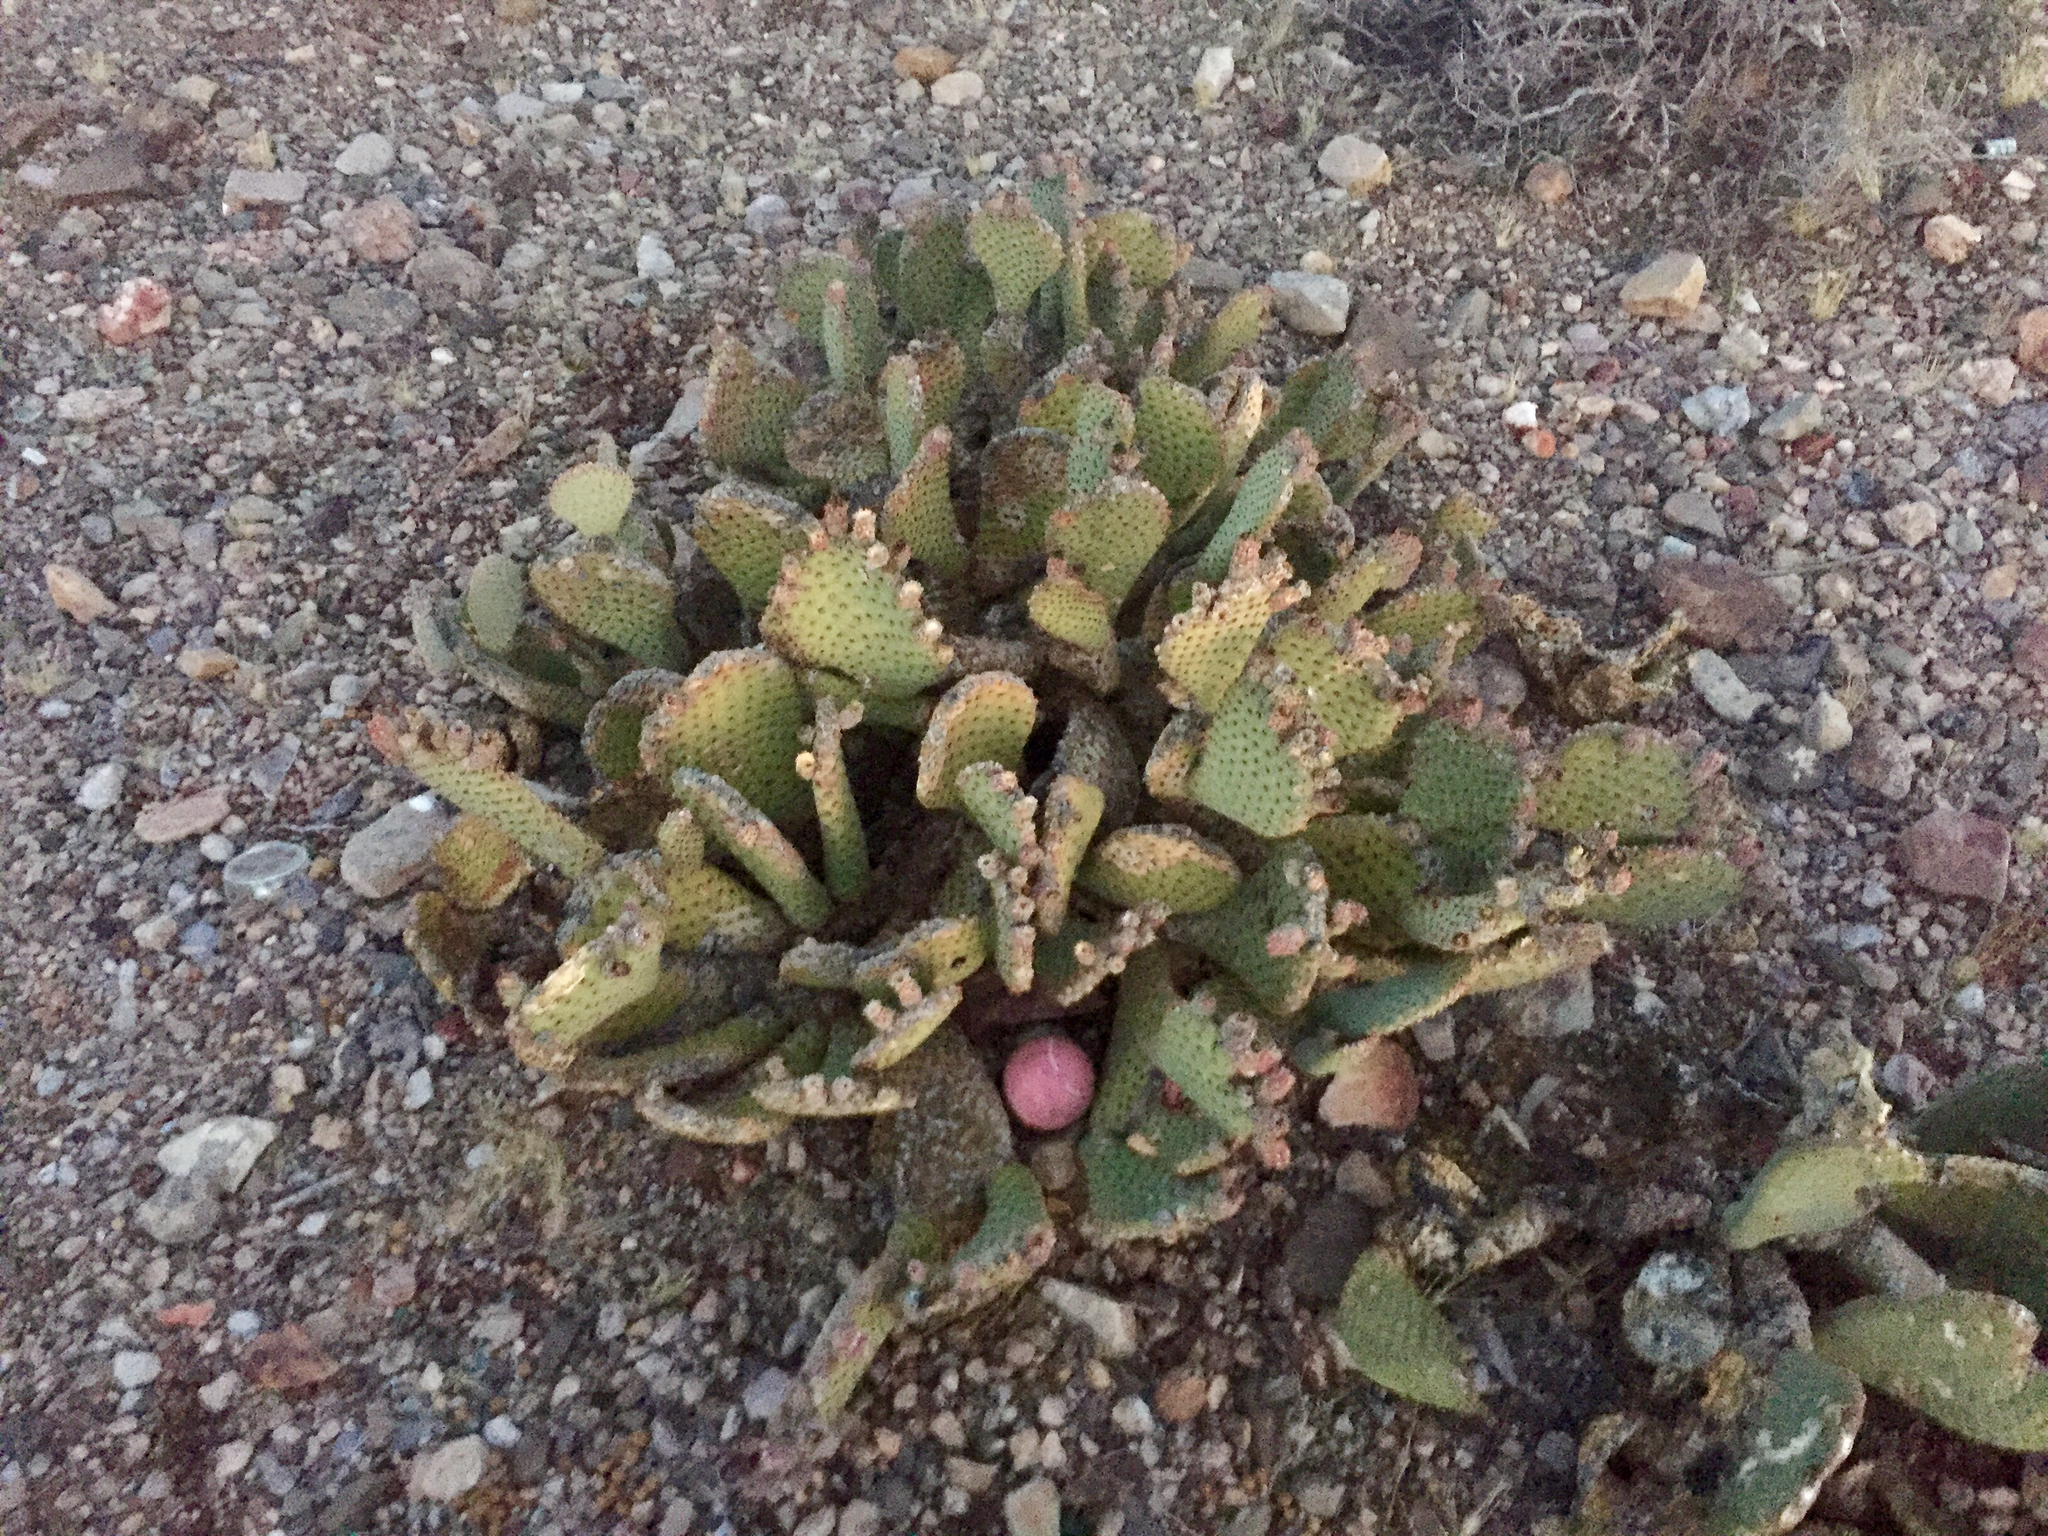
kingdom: Plantae
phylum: Tracheophyta
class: Magnoliopsida
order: Caryophyllales
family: Cactaceae
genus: Opuntia
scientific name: Opuntia basilaris
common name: Beavertail prickly-pear
